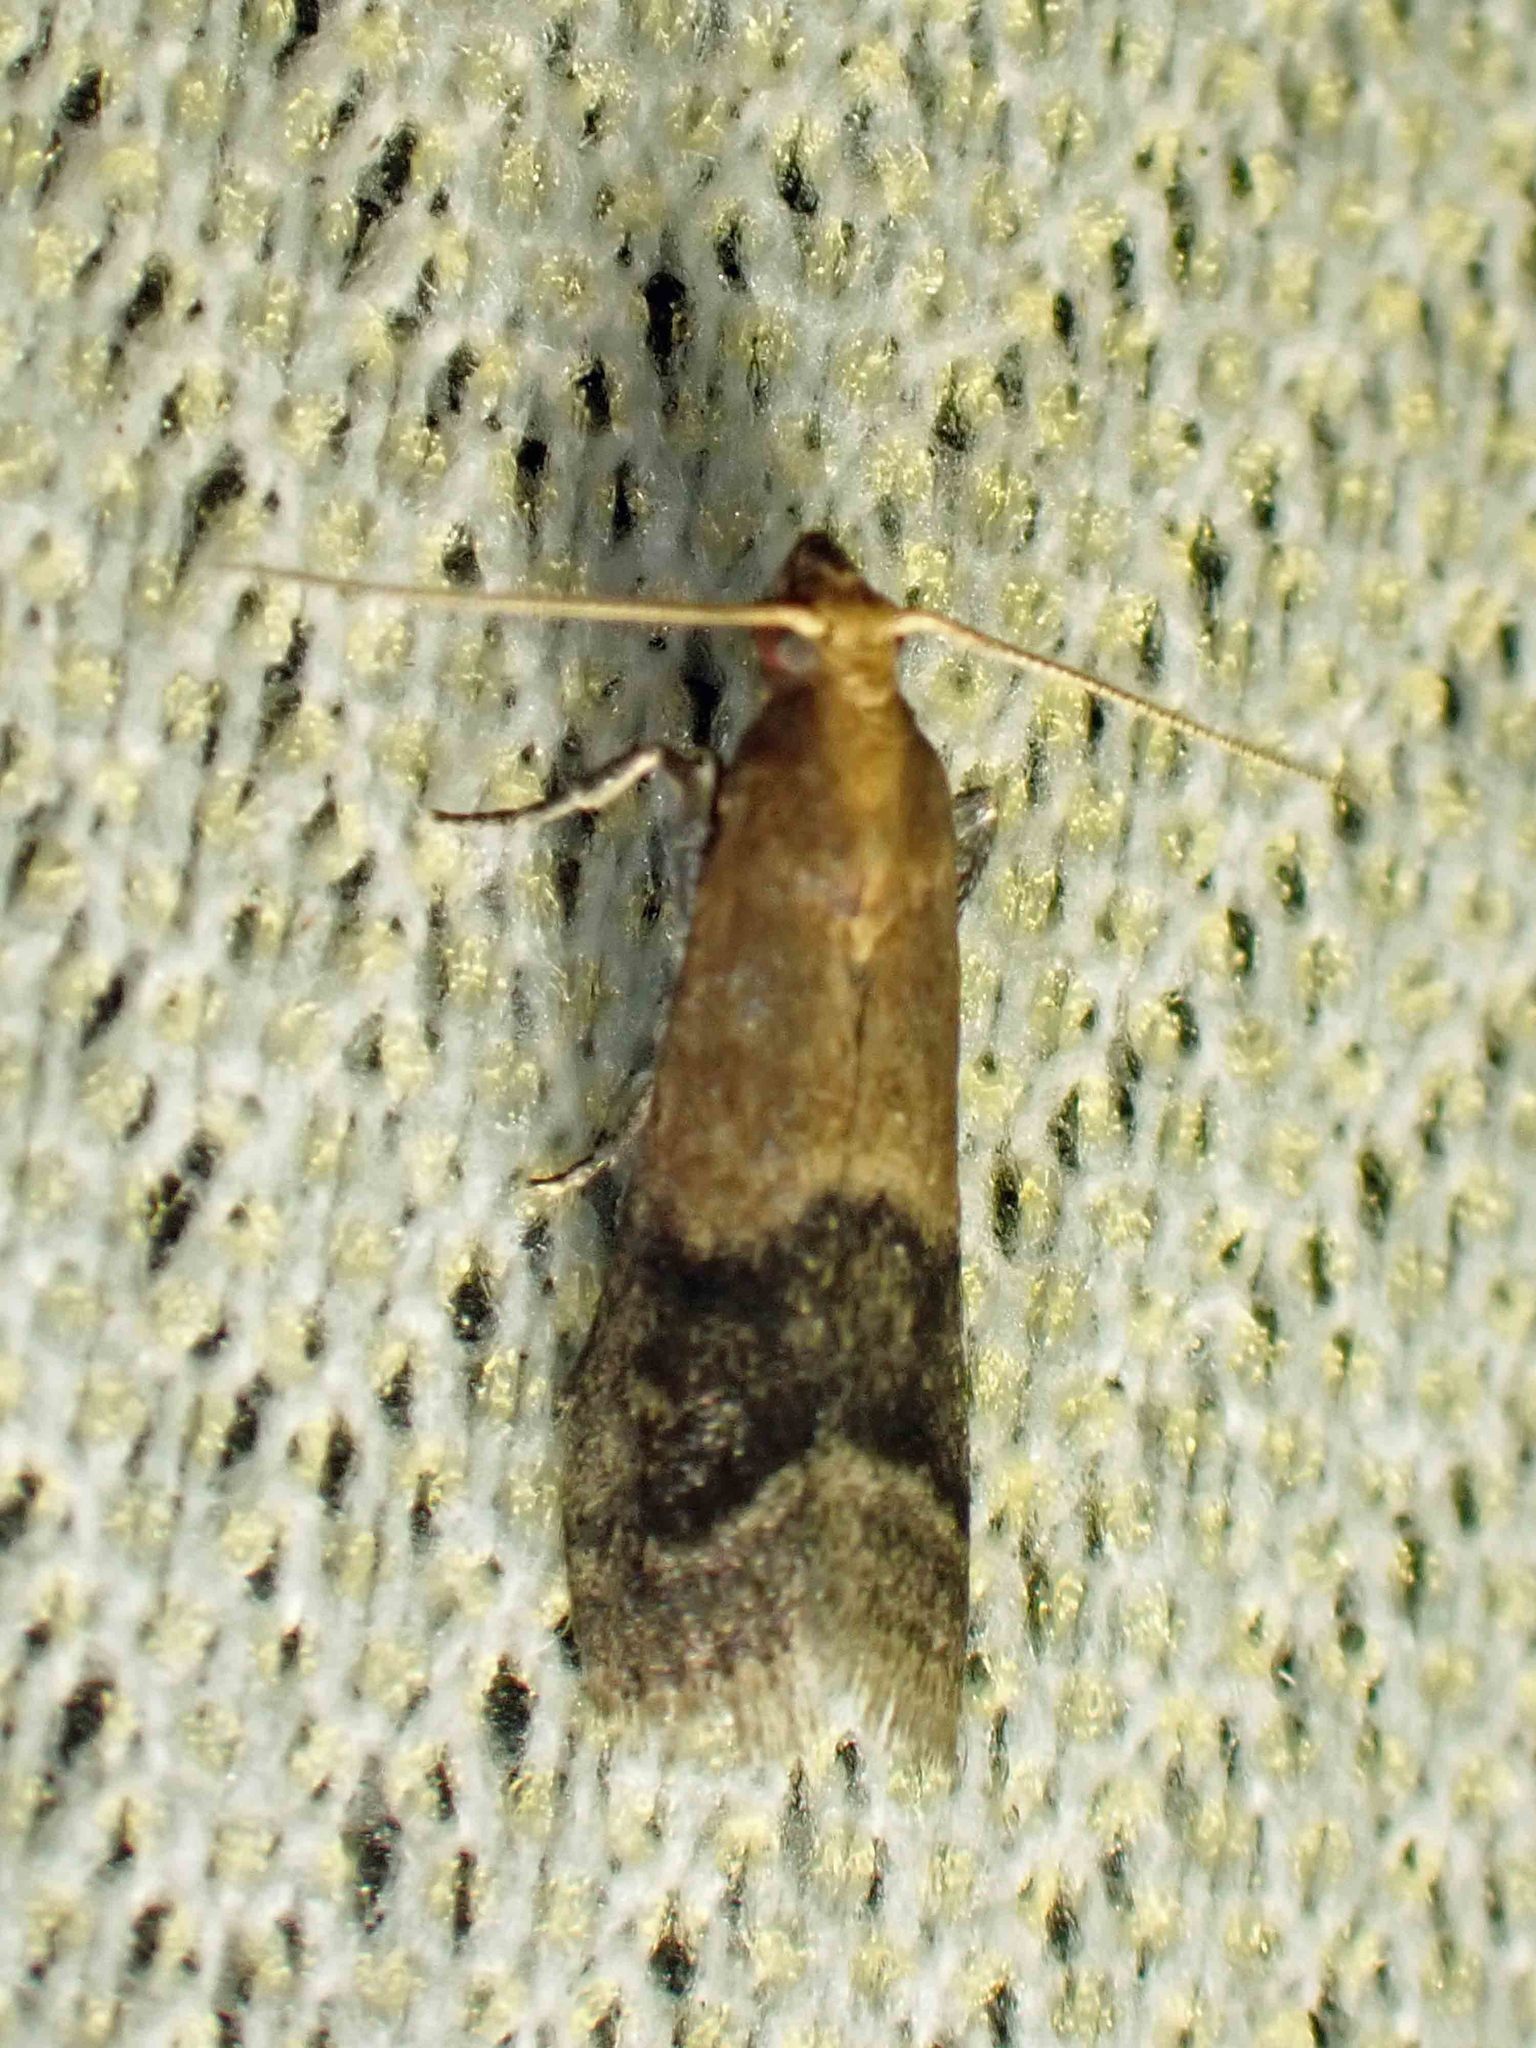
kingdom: Animalia
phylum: Arthropoda
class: Insecta
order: Lepidoptera
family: Pyralidae
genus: Eulogia
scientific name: Eulogia ochrifrontella
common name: Broad-banded eulogia moth
